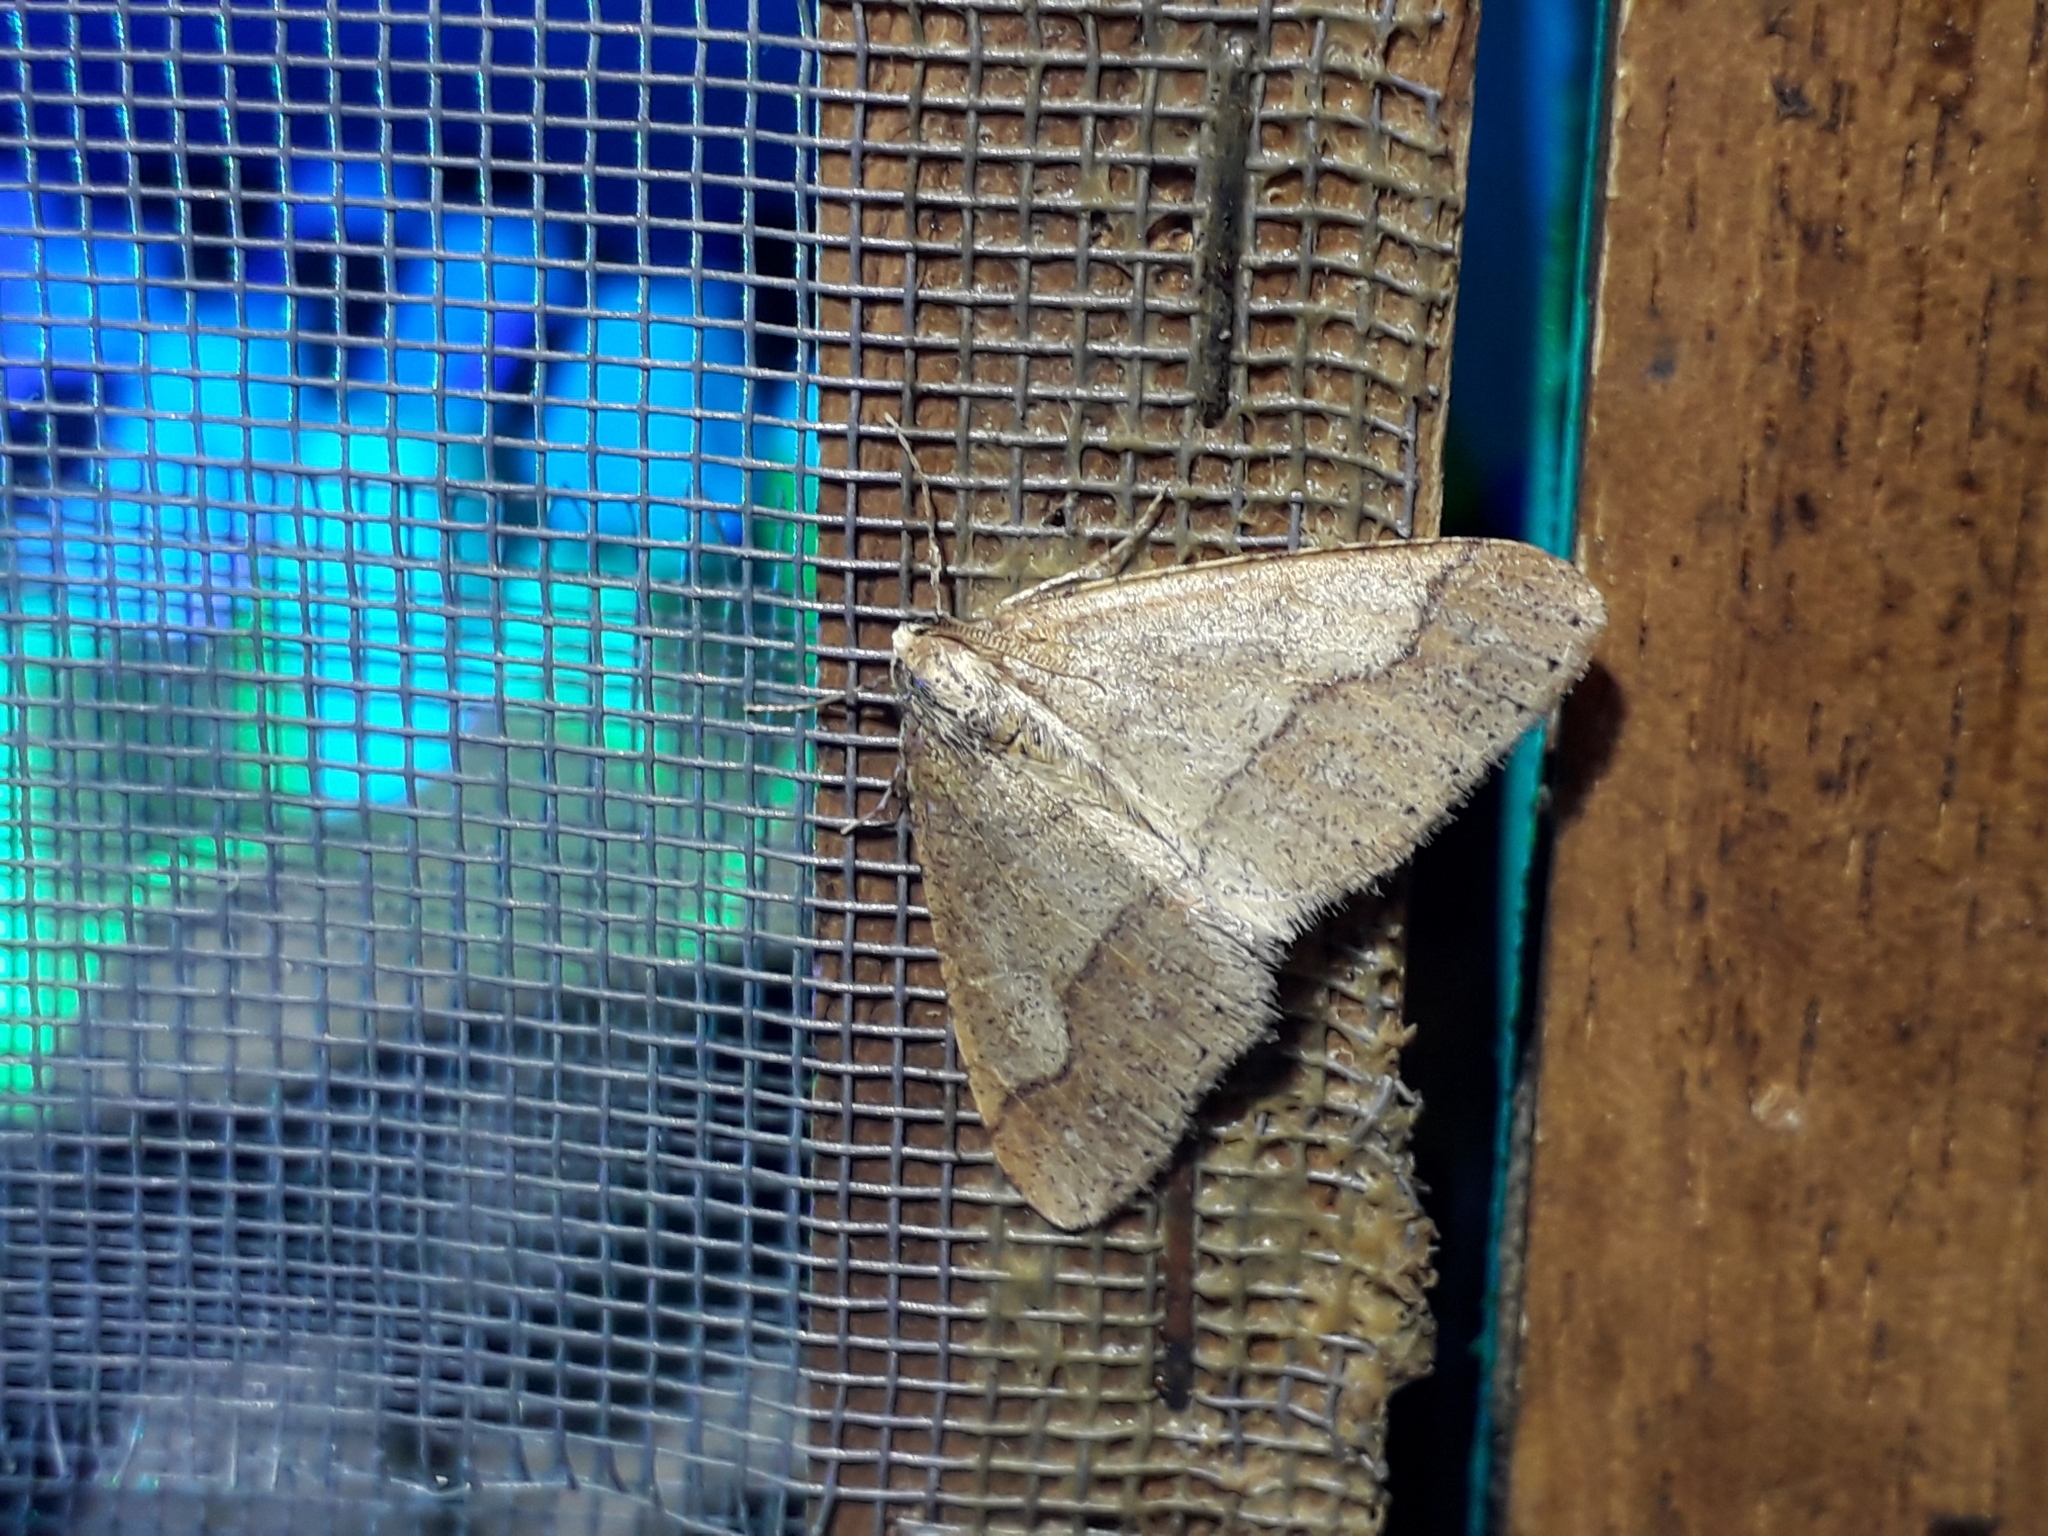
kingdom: Animalia
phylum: Arthropoda
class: Insecta
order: Lepidoptera
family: Geometridae
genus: Agriopis
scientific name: Agriopis marginaria
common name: Dotted border
